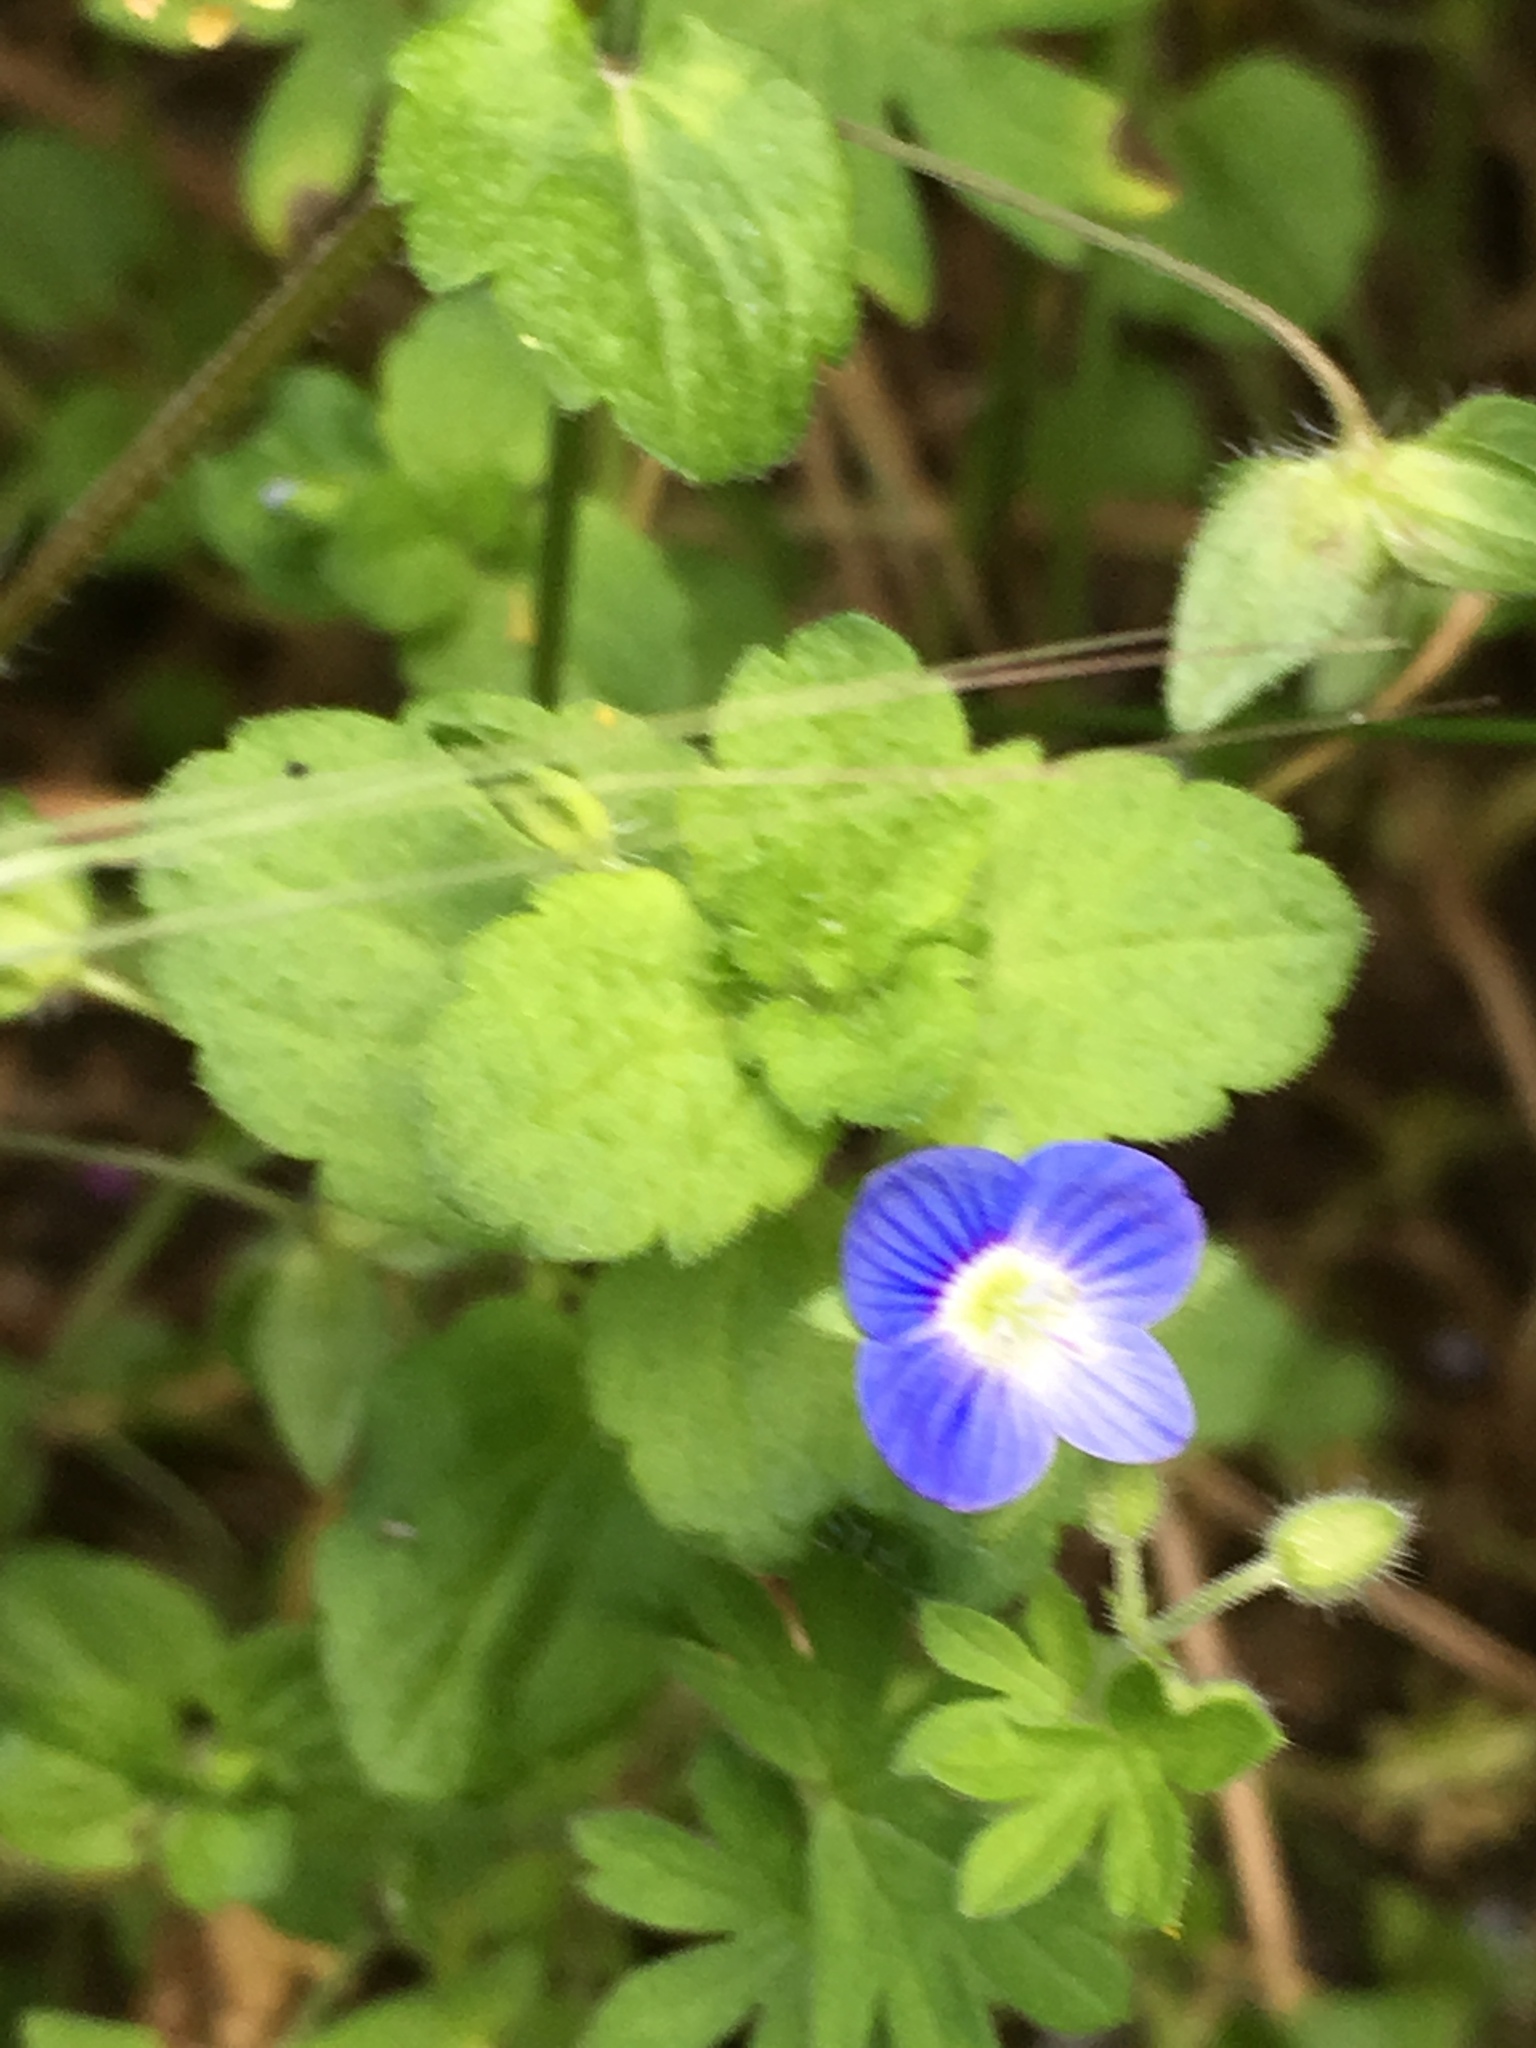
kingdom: Plantae
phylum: Tracheophyta
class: Magnoliopsida
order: Lamiales
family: Plantaginaceae
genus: Veronica
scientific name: Veronica persica
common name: Common field-speedwell
